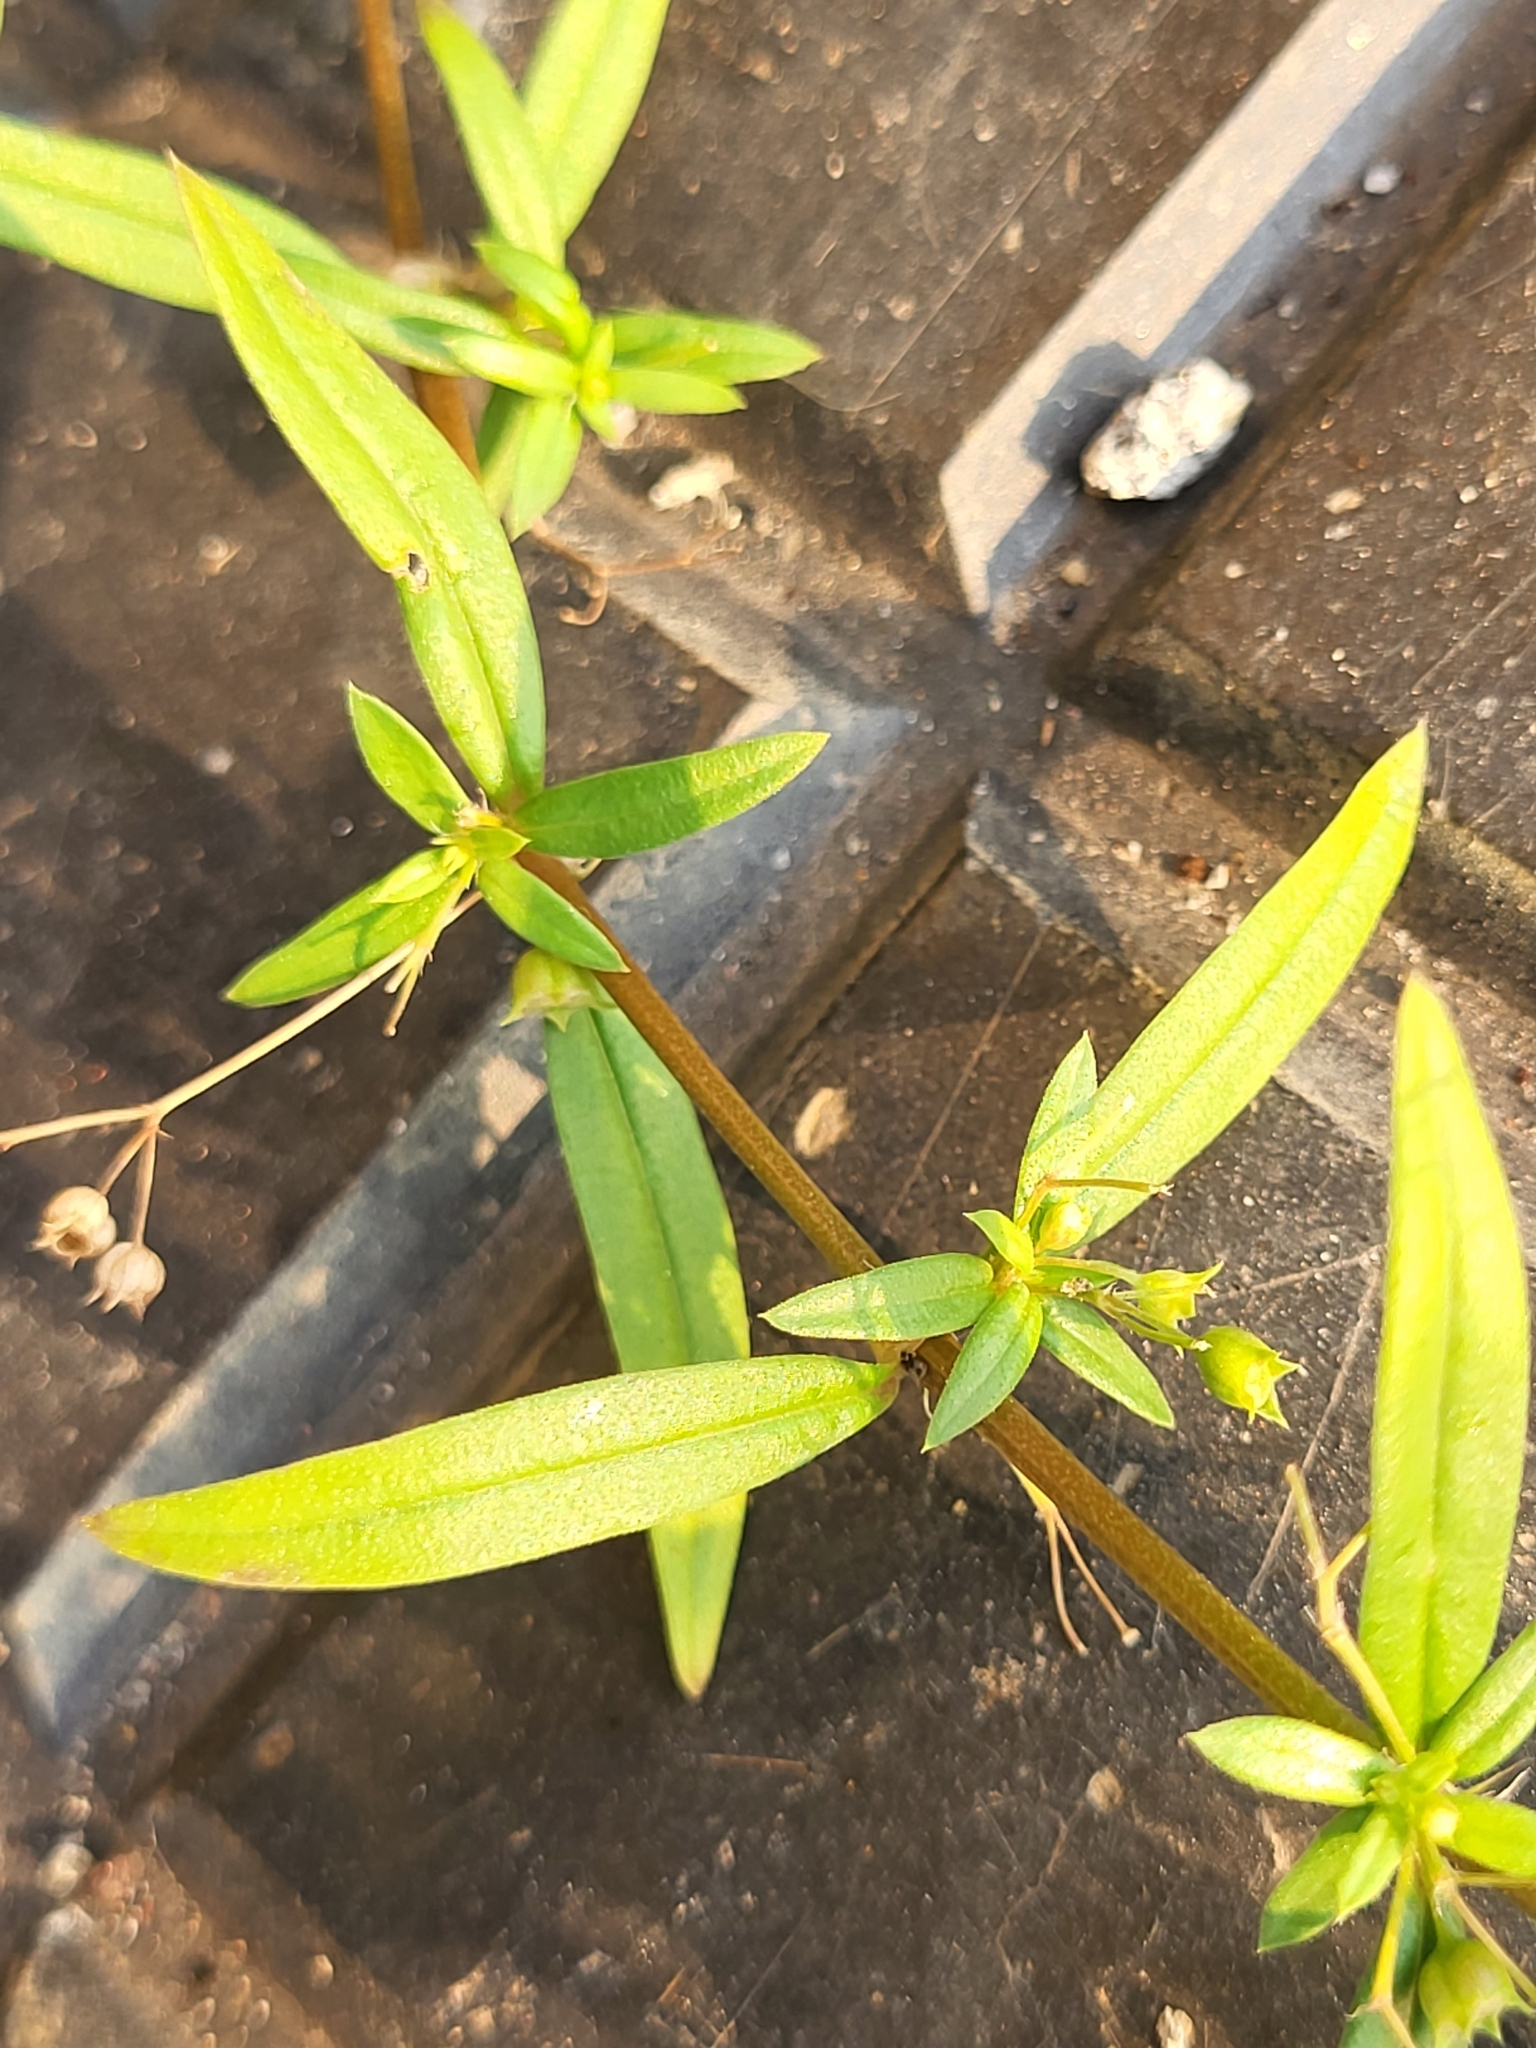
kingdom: Plantae
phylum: Tracheophyta
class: Magnoliopsida
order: Gentianales
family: Rubiaceae
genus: Oldenlandia
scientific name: Oldenlandia corymbosa
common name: Flat-top mille graines
